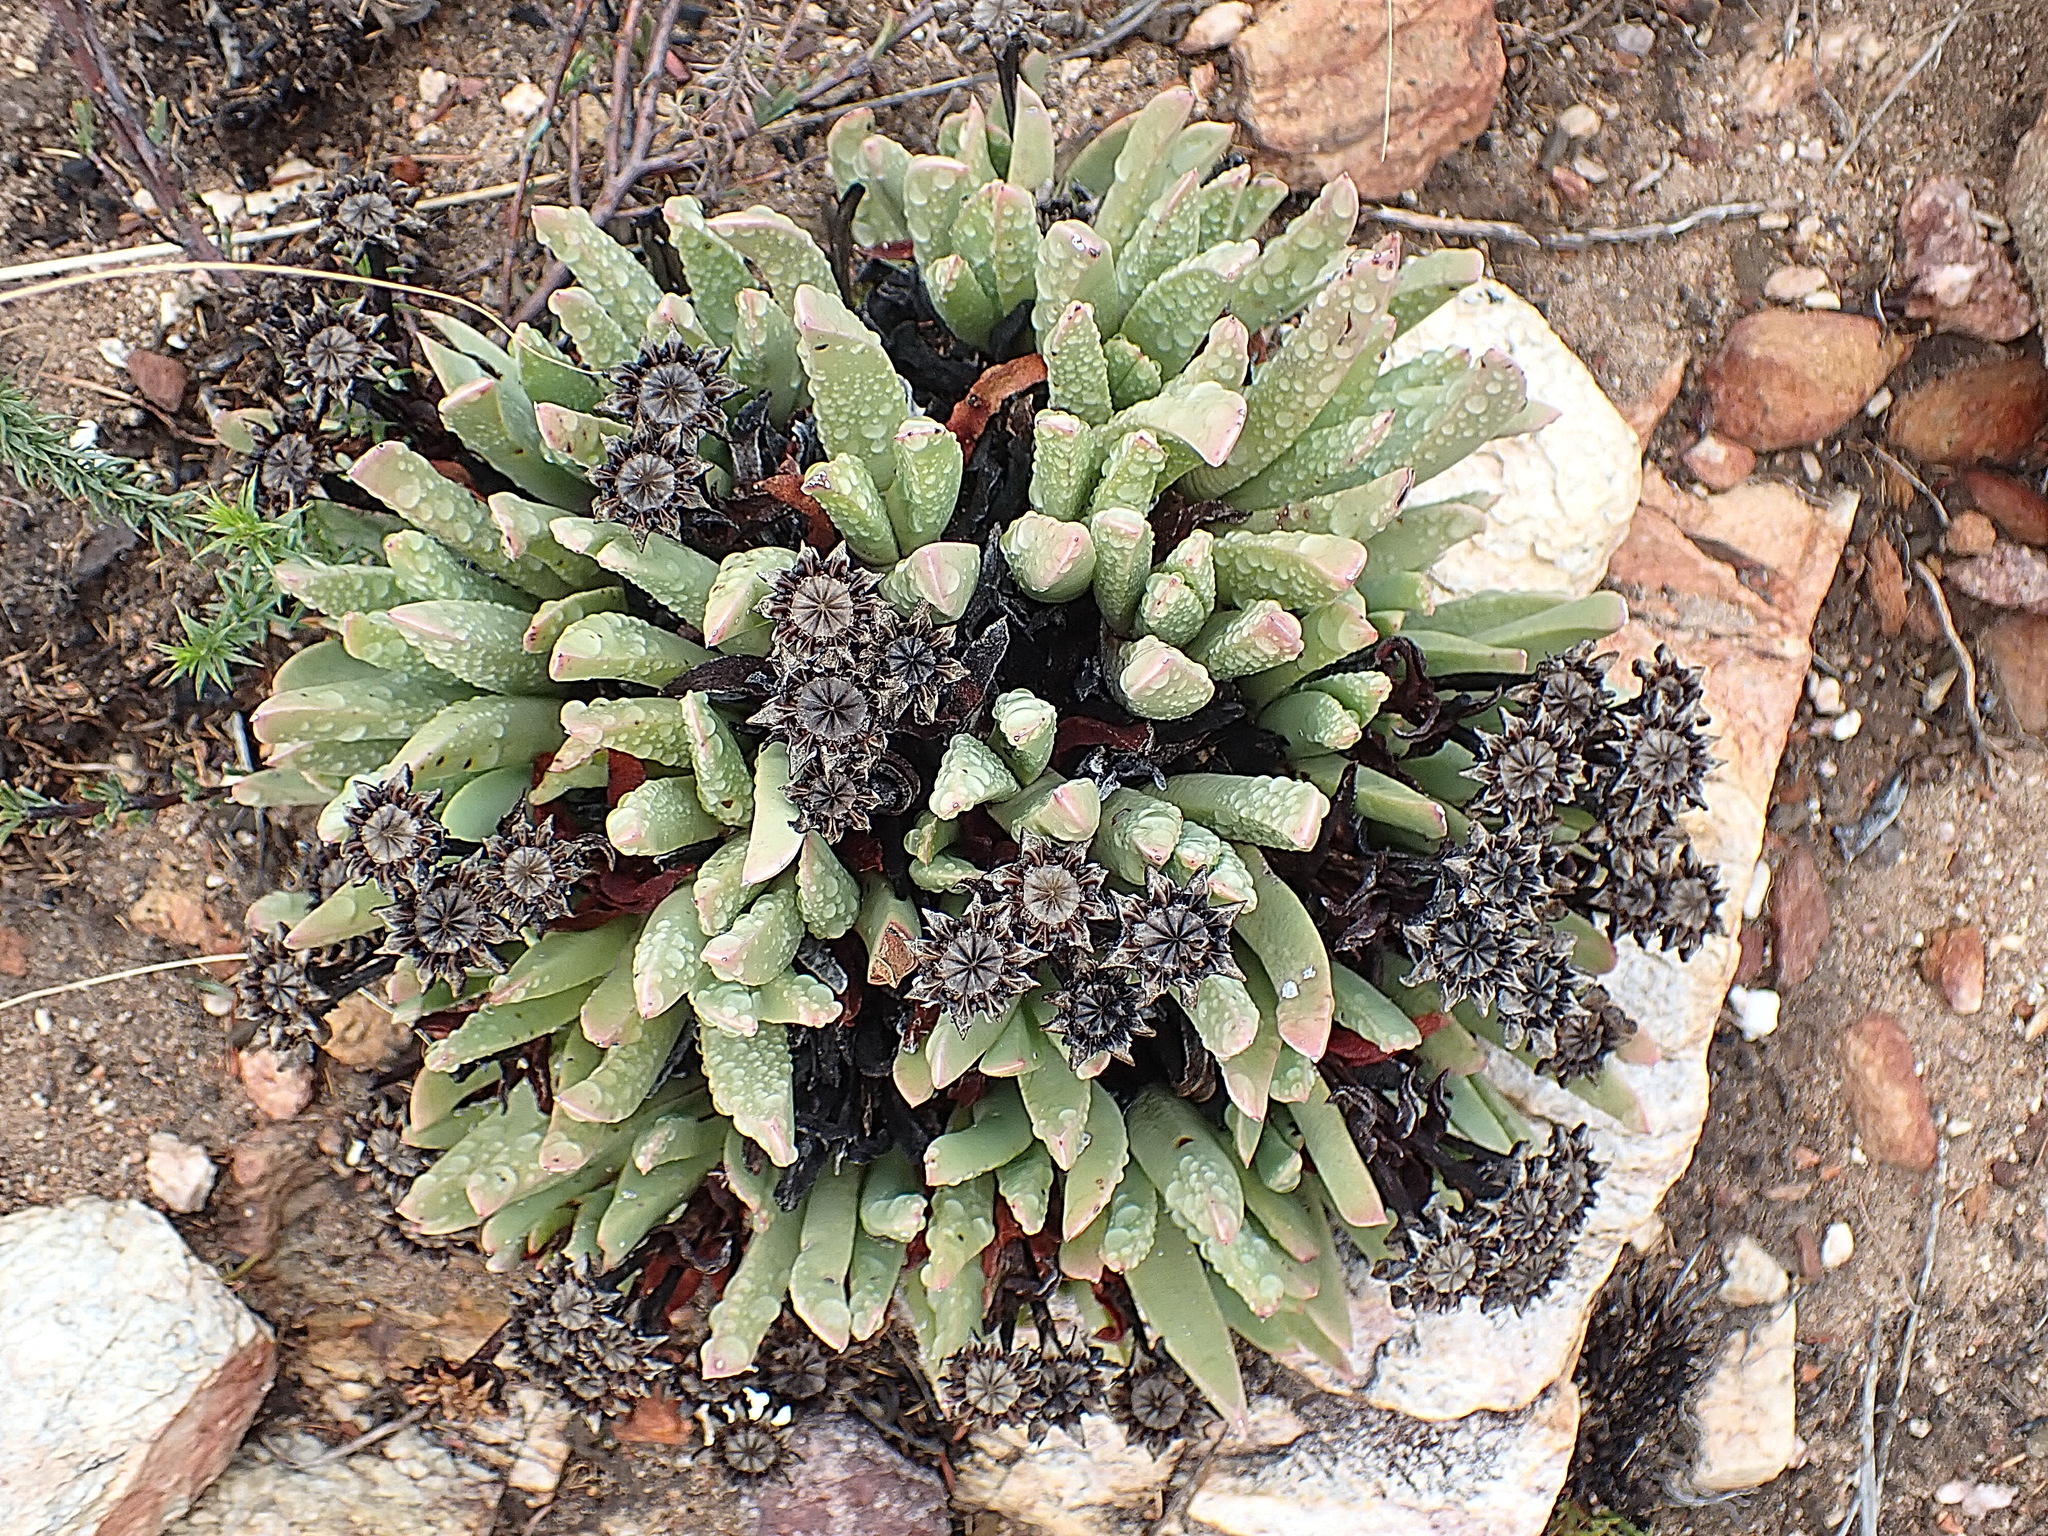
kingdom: Plantae
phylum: Tracheophyta
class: Magnoliopsida
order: Caryophyllales
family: Aizoaceae
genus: Machairophyllum
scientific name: Machairophyllum albidum
